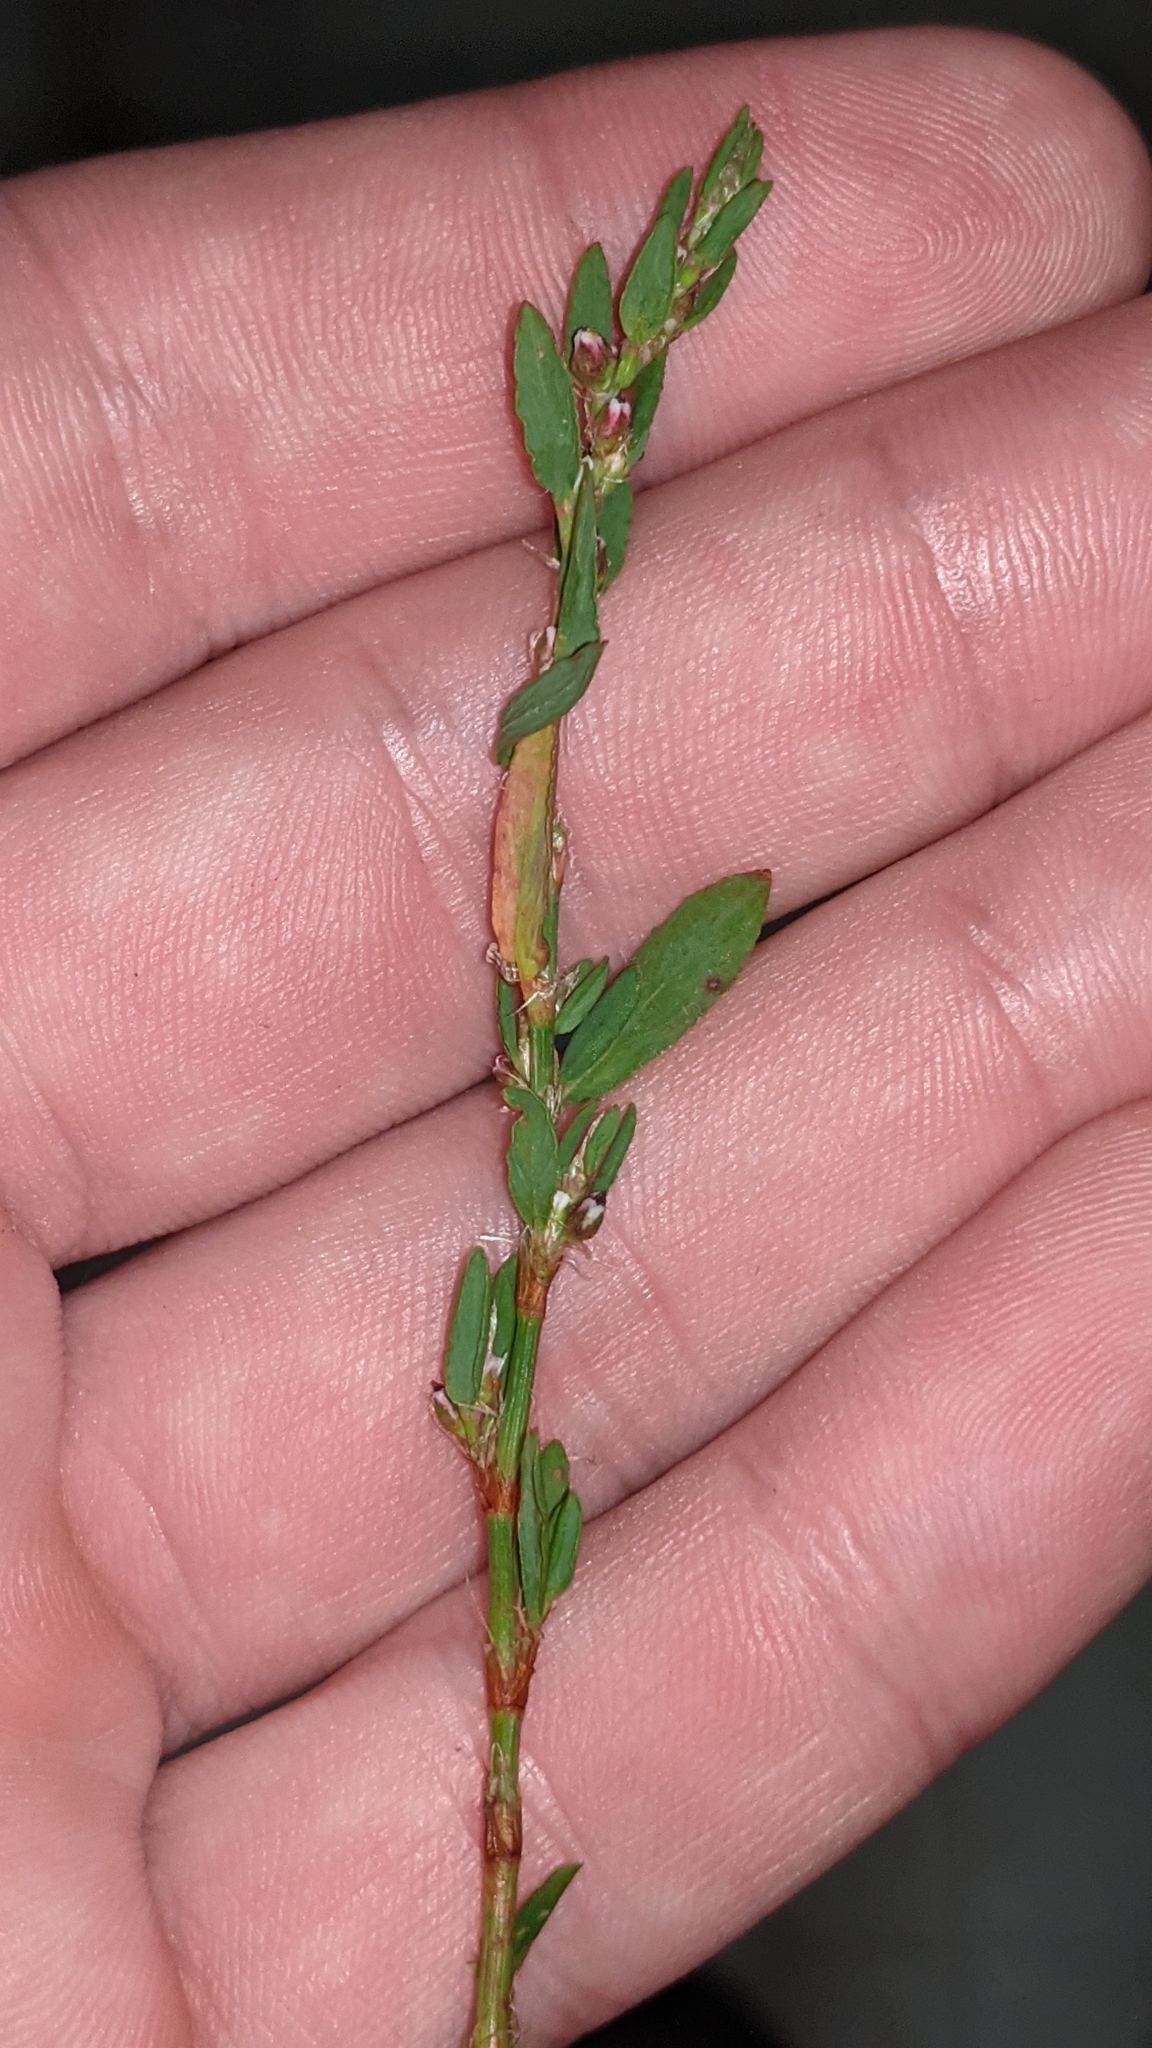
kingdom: Plantae
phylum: Tracheophyta
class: Magnoliopsida
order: Caryophyllales
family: Polygonaceae
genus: Polygonum
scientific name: Polygonum aviculare
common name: Prostrate knotweed
